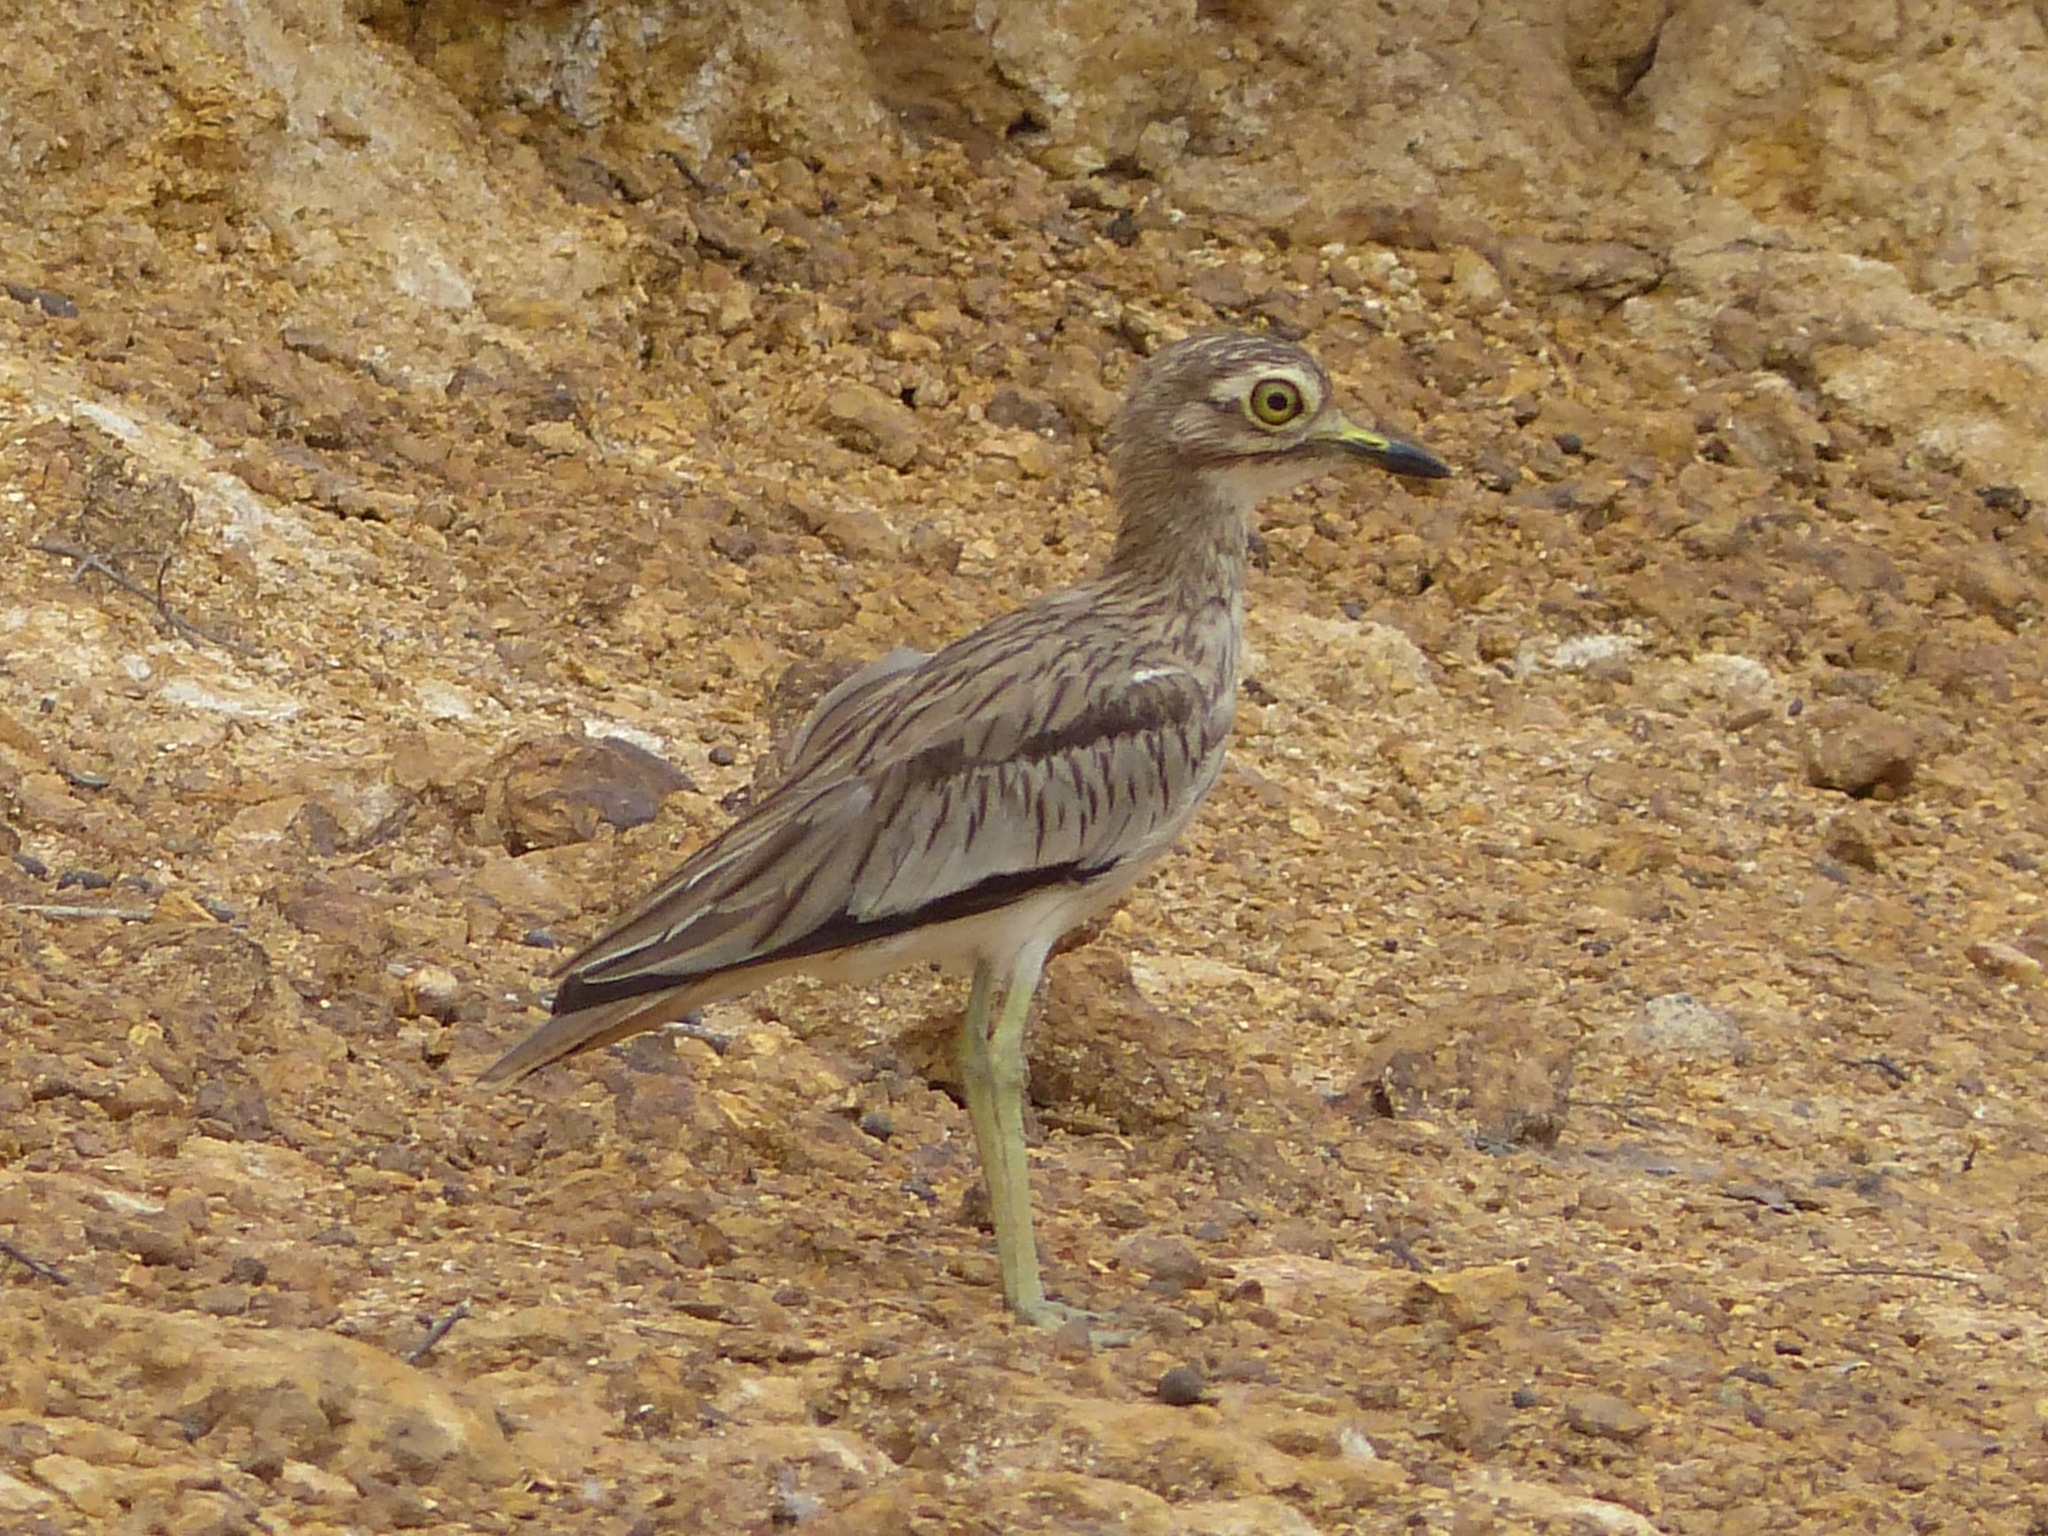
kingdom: Animalia
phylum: Chordata
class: Aves
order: Charadriiformes
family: Burhinidae
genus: Burhinus
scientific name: Burhinus senegalensis
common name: Senegal thick-knee
